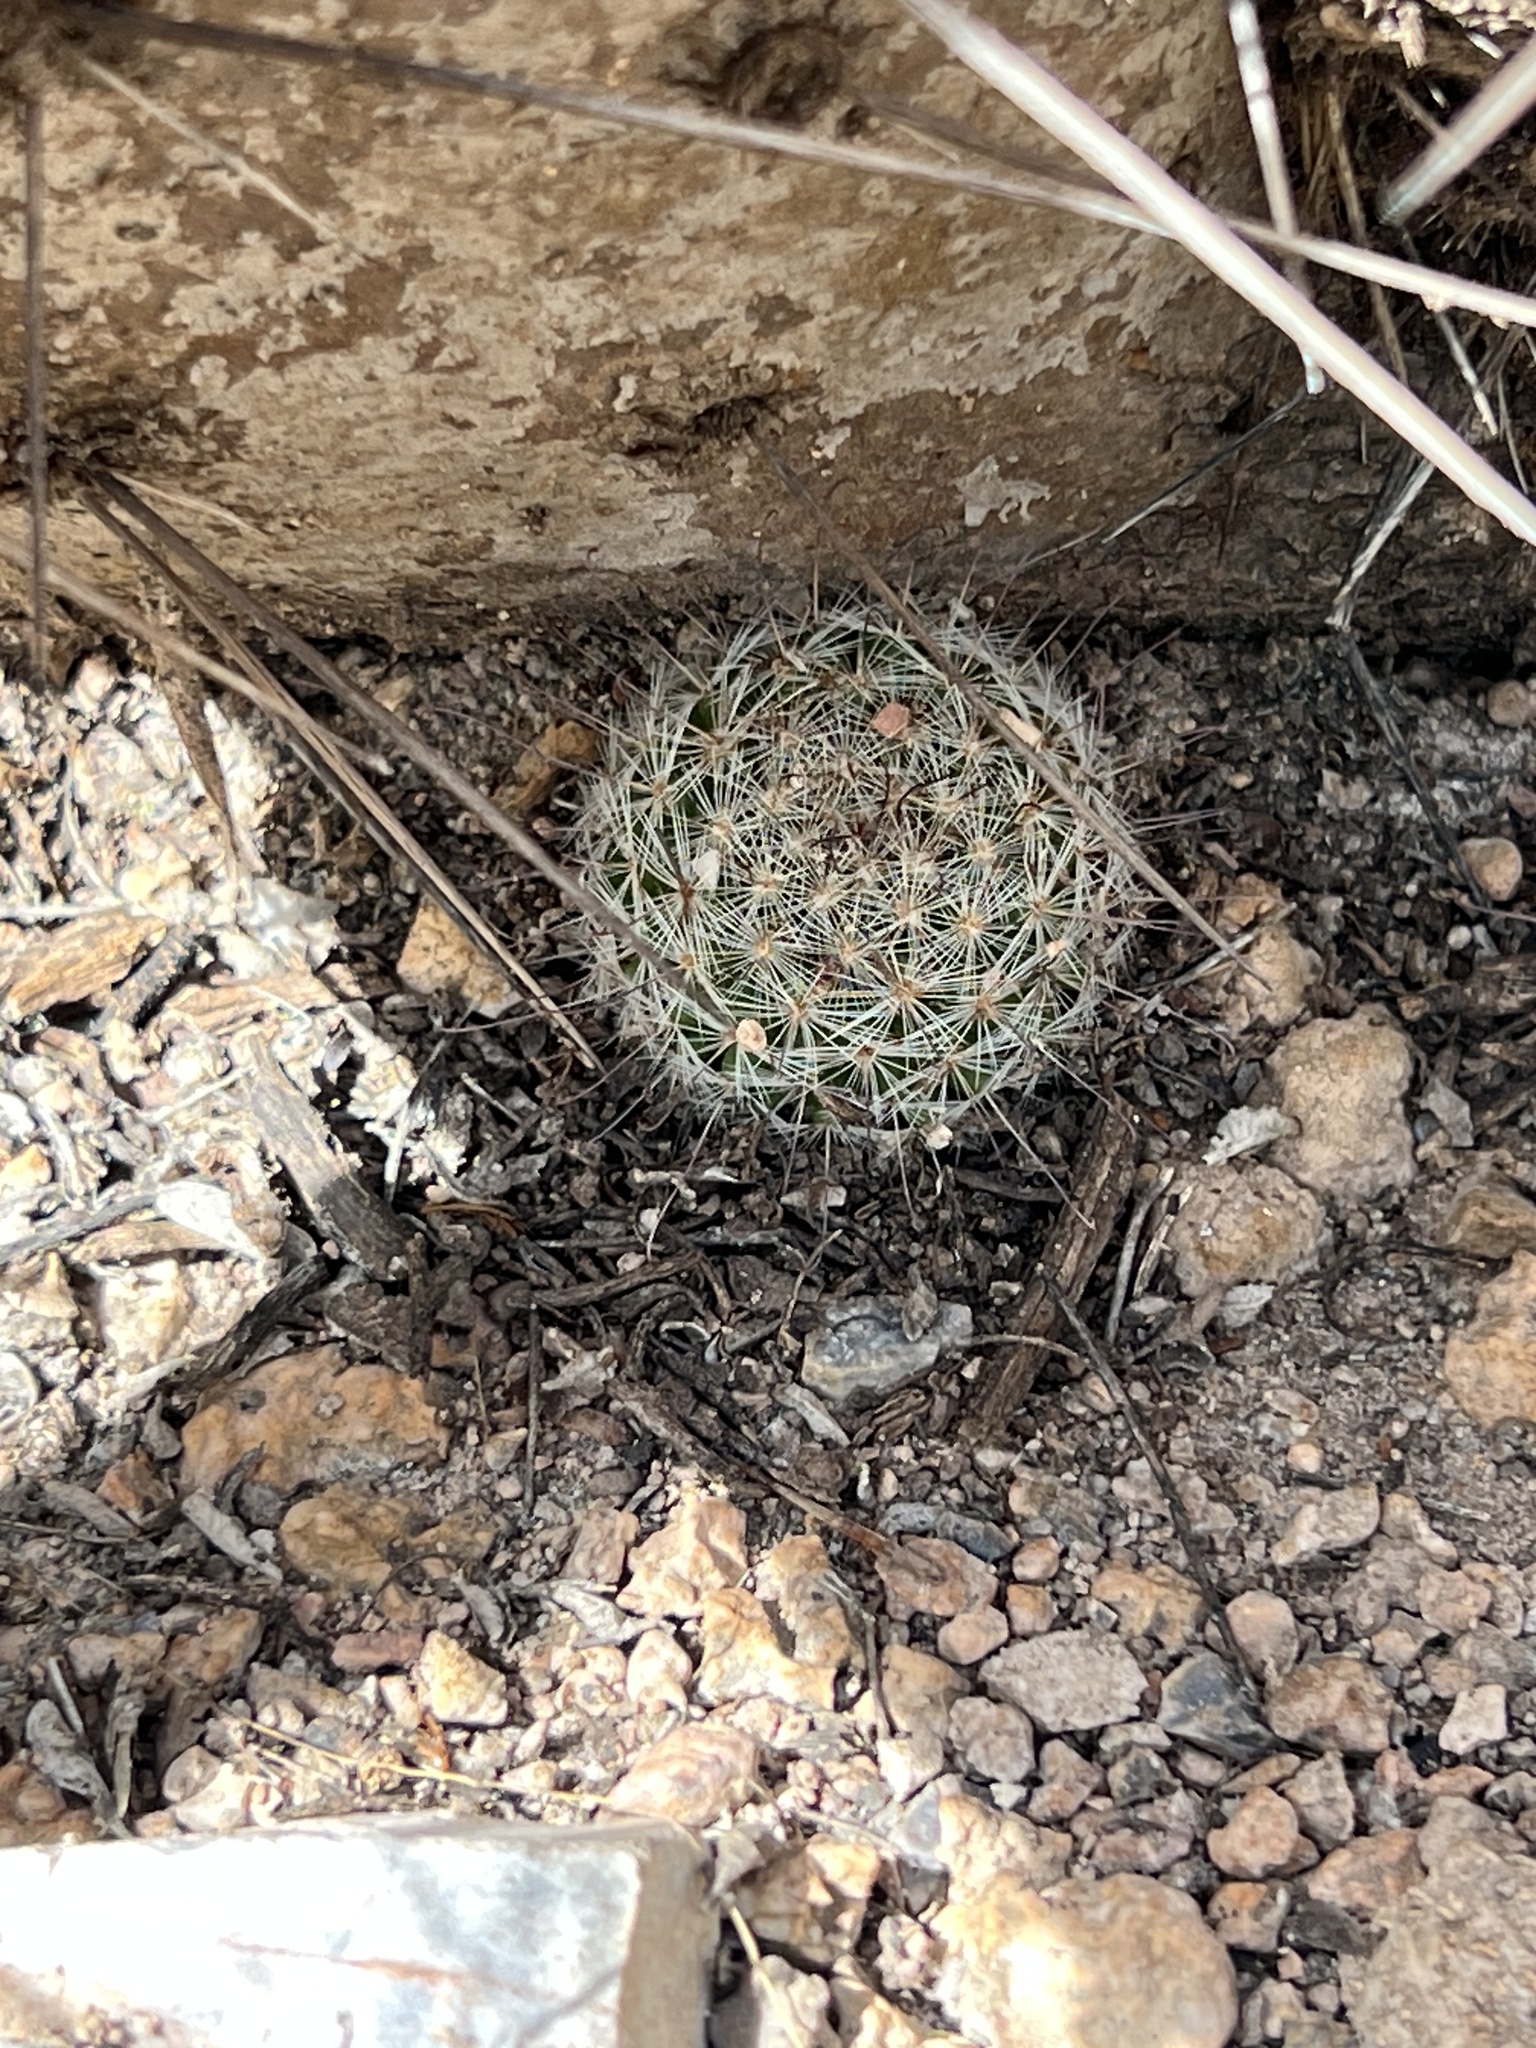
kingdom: Plantae
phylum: Tracheophyta
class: Magnoliopsida
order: Caryophyllales
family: Cactaceae
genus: Cochemiea
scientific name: Cochemiea grahamii
